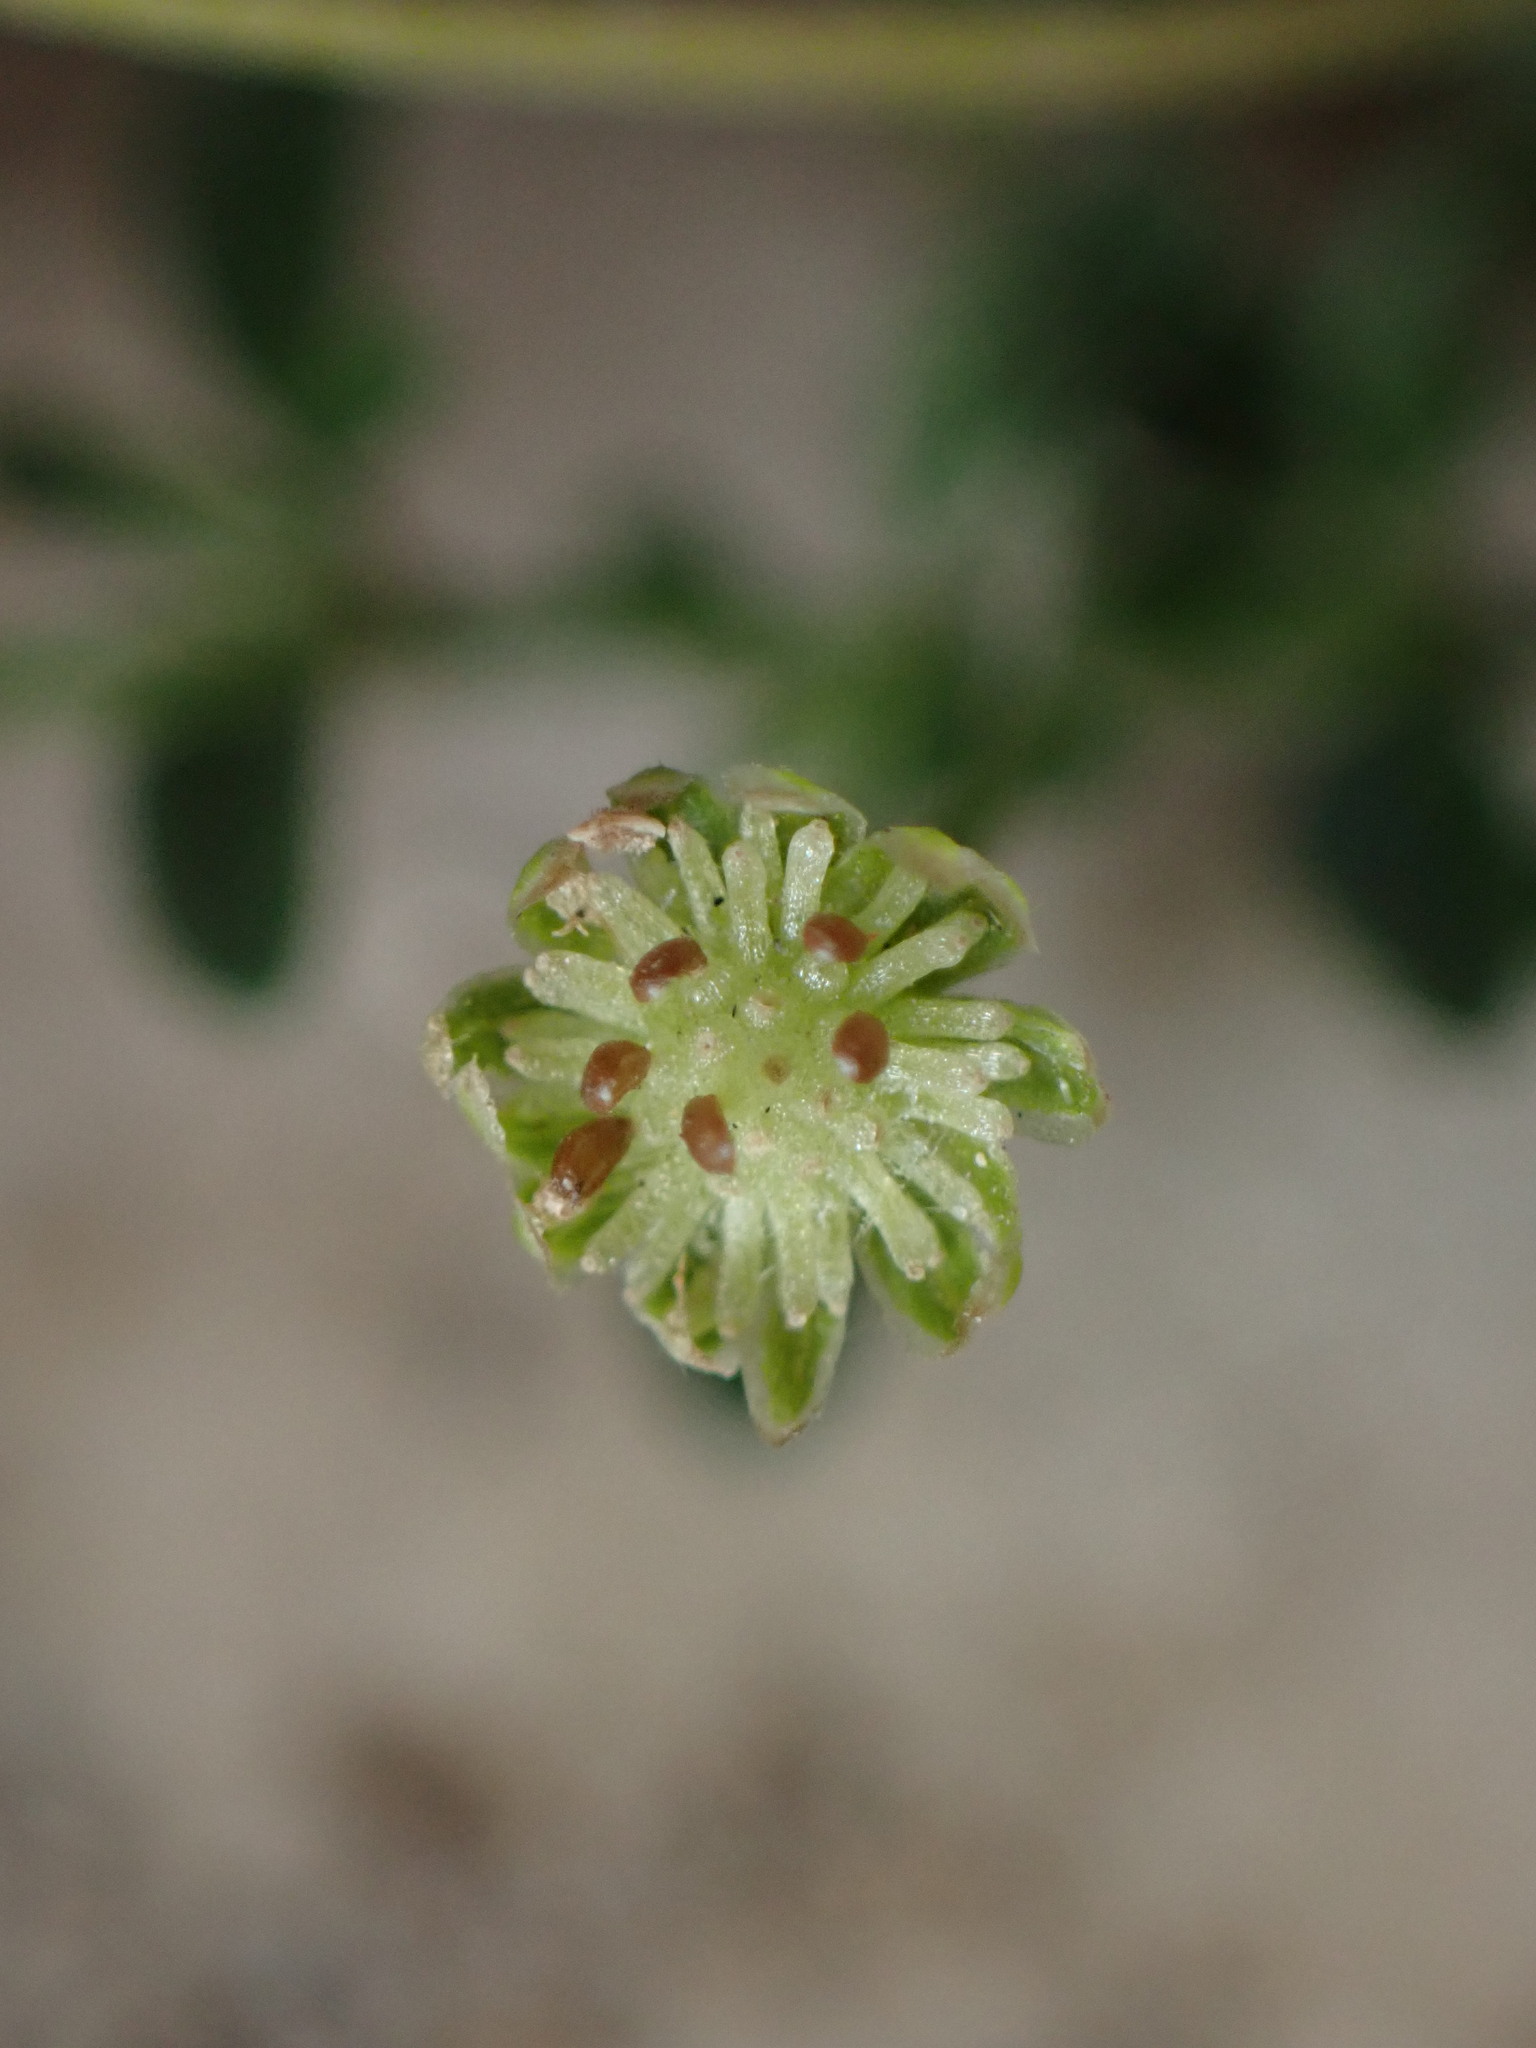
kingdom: Plantae
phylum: Tracheophyta
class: Magnoliopsida
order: Asterales
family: Asteraceae
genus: Cotula
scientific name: Cotula australis
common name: Australian waterbuttons
